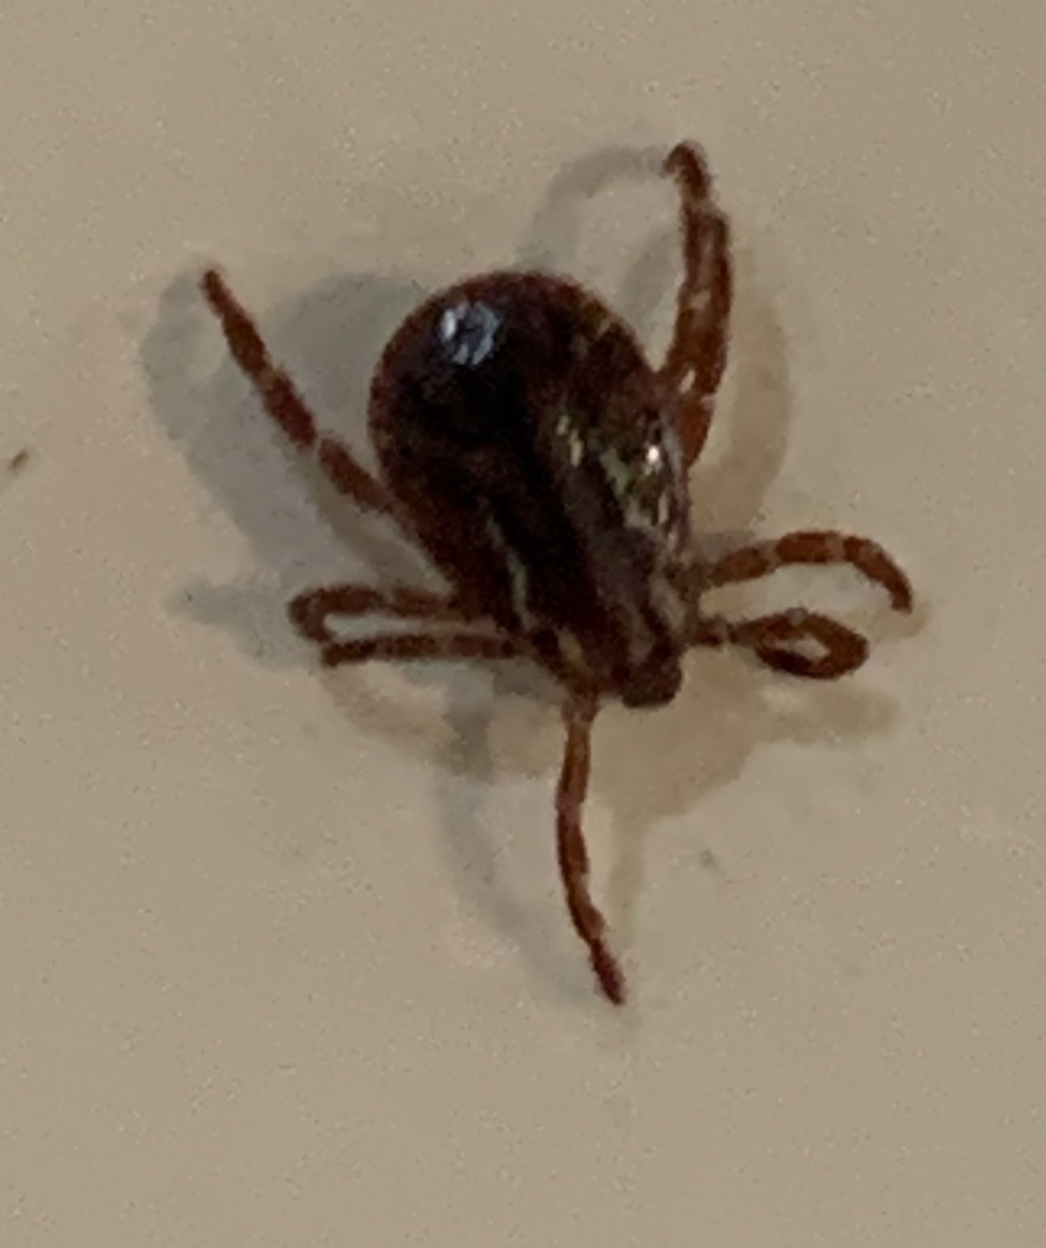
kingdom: Animalia
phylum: Arthropoda
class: Arachnida
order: Ixodida
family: Ixodidae
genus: Dermacentor
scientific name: Dermacentor variabilis
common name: American dog tick
